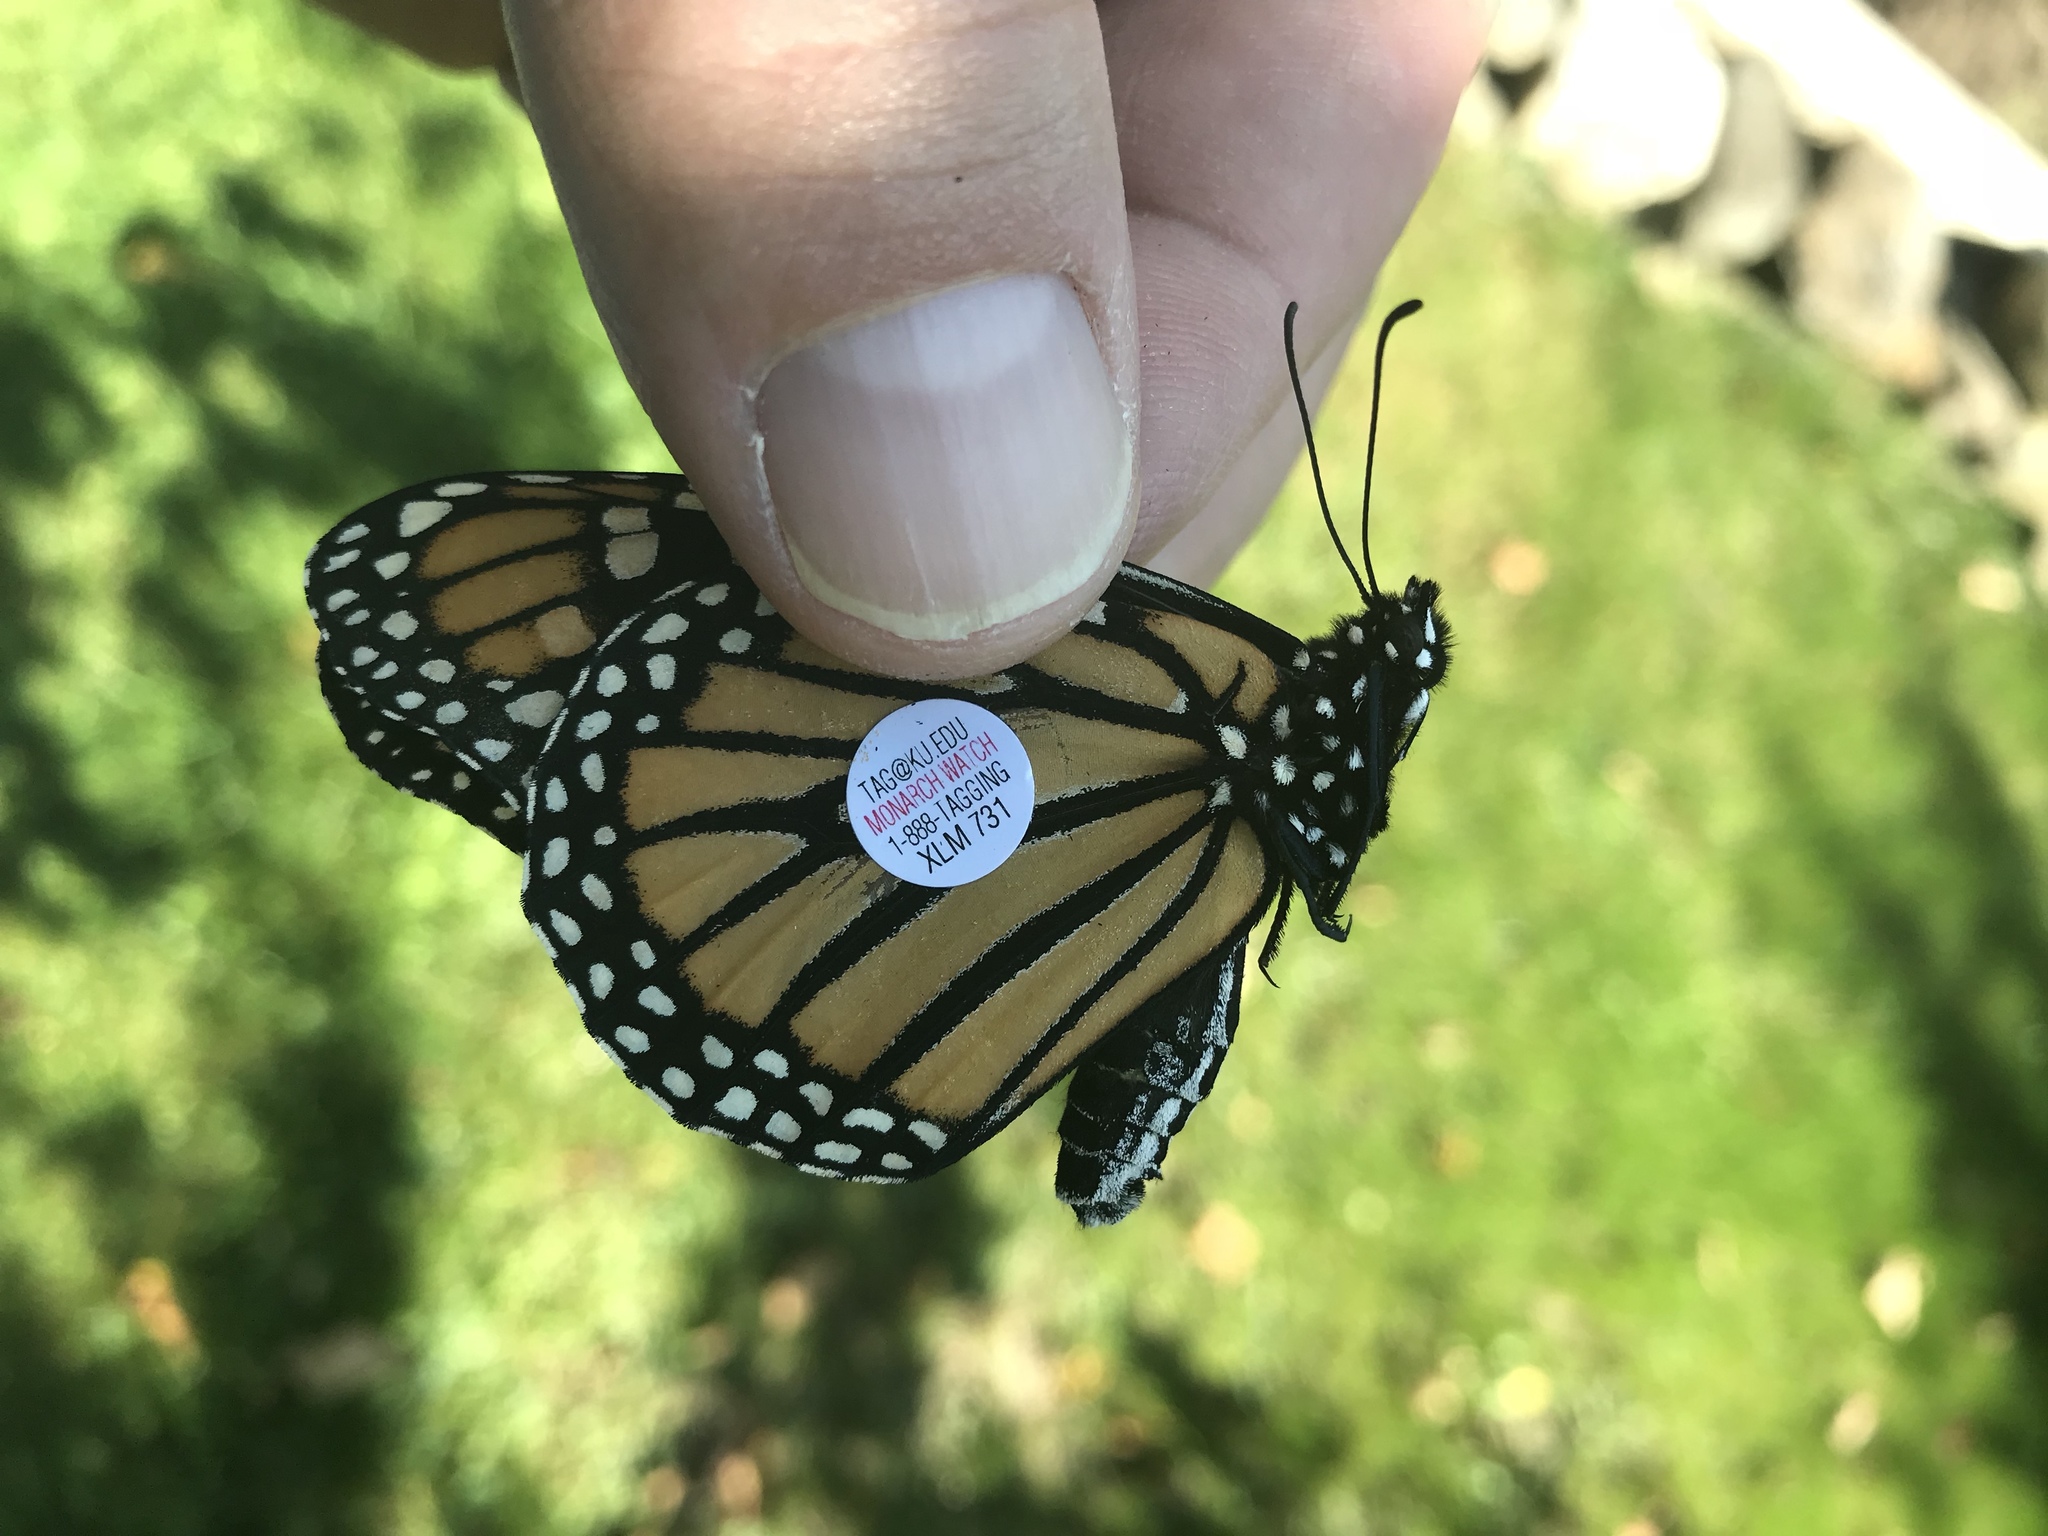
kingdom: Animalia
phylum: Arthropoda
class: Insecta
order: Lepidoptera
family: Nymphalidae
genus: Danaus
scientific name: Danaus plexippus
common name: Monarch
